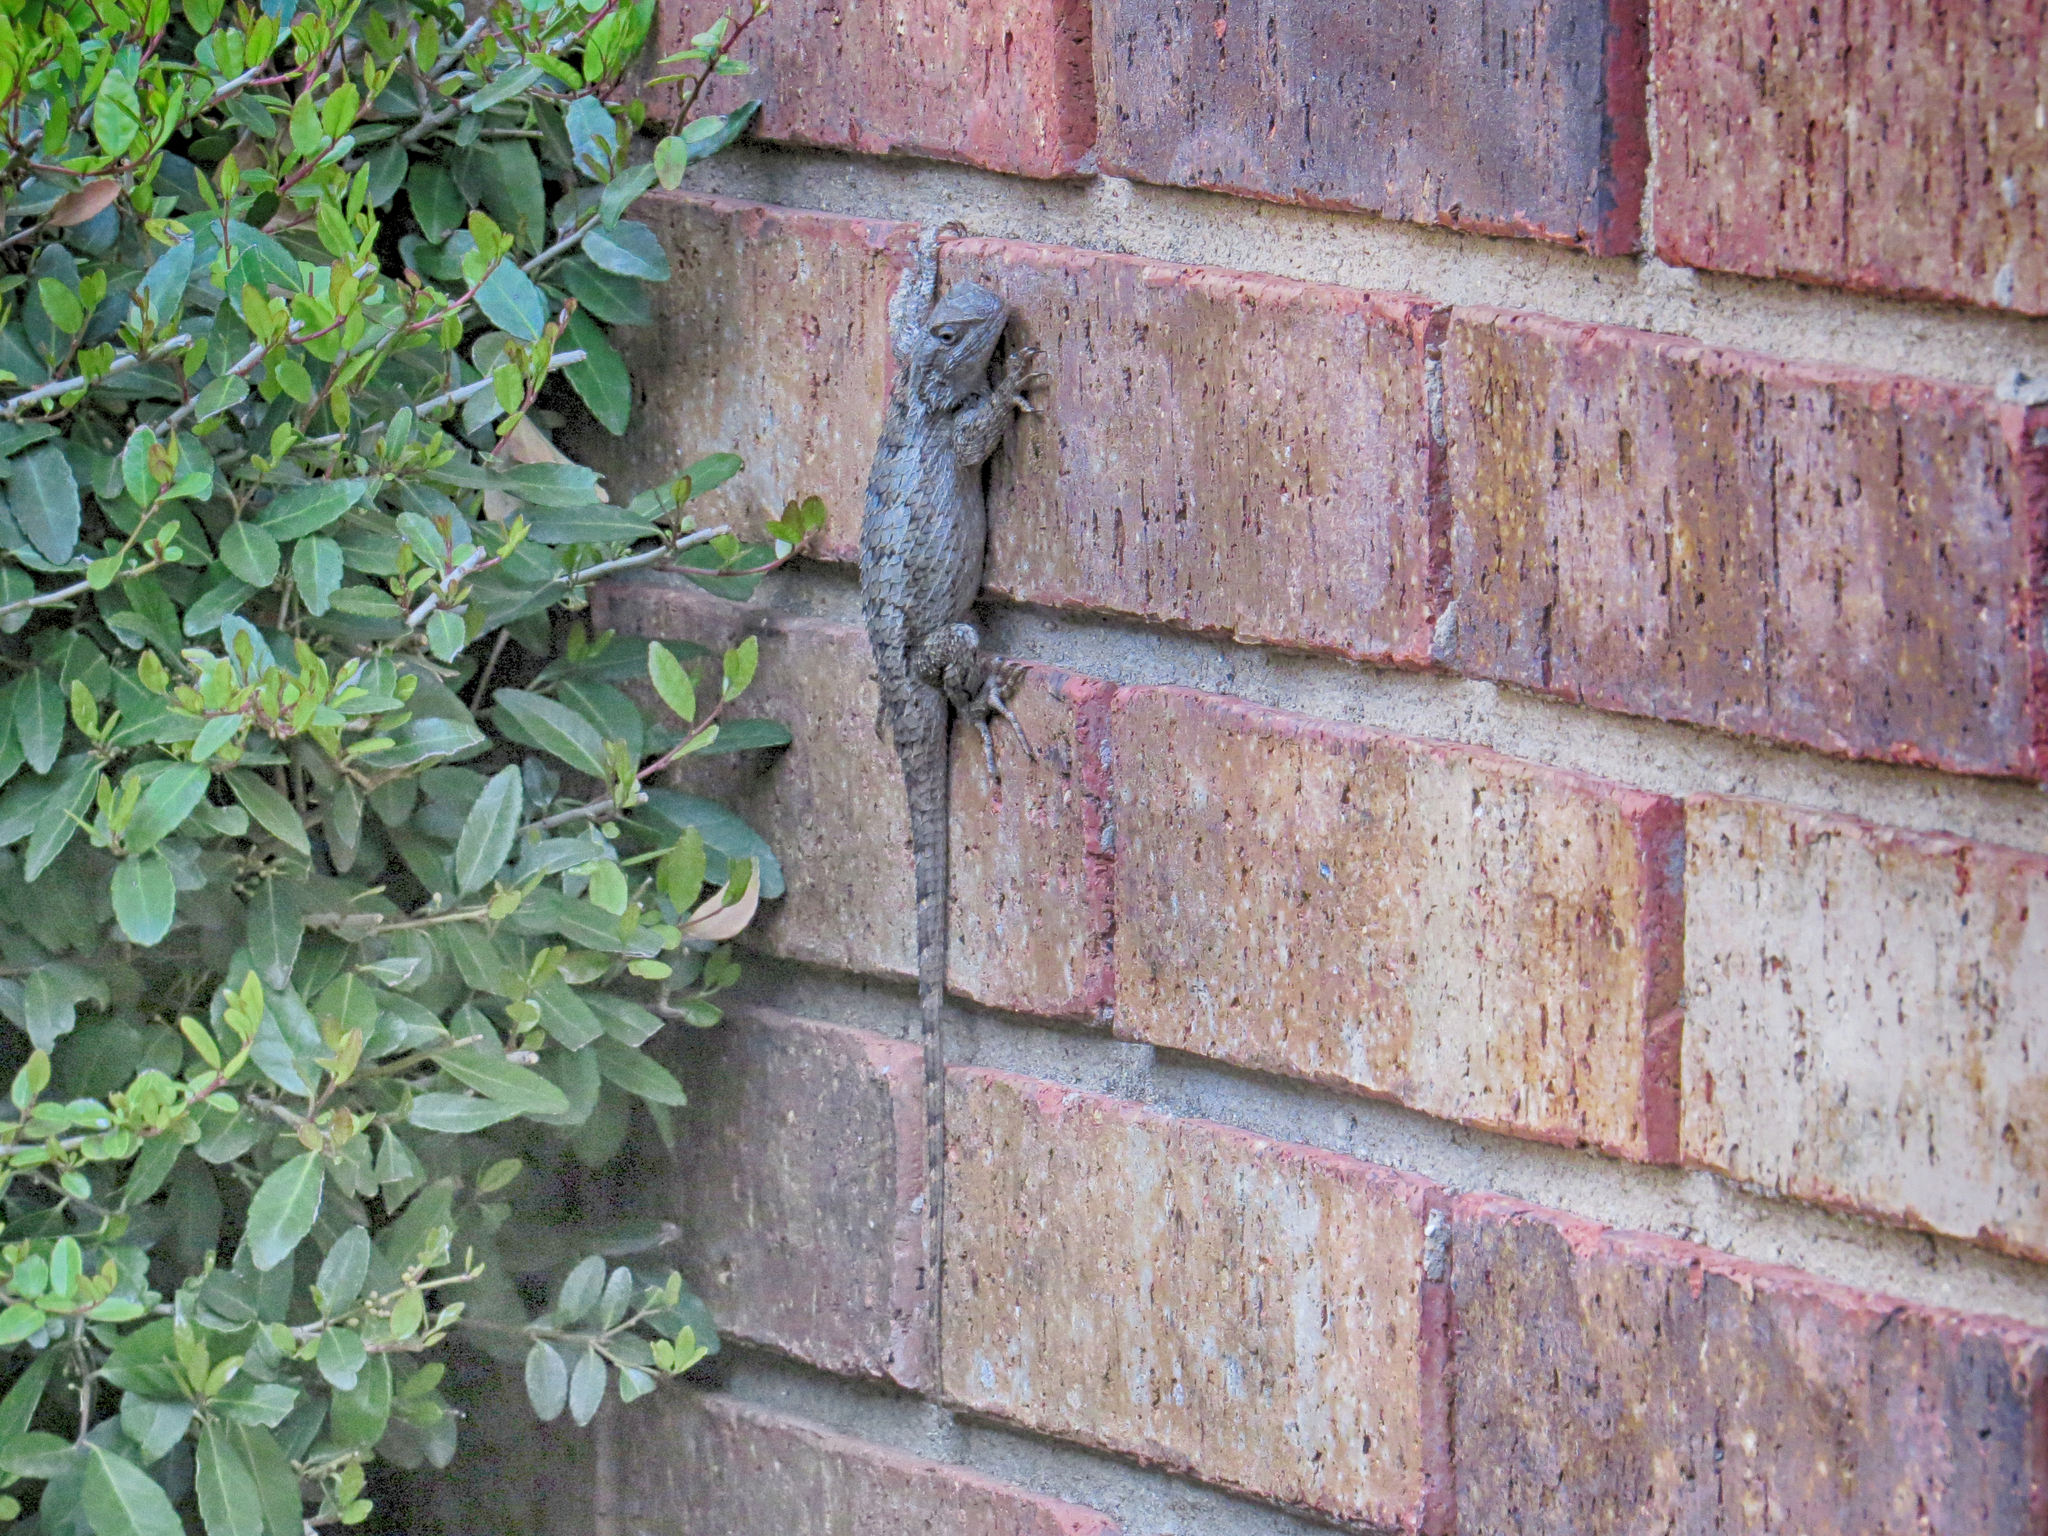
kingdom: Animalia
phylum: Chordata
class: Squamata
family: Phrynosomatidae
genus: Sceloporus
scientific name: Sceloporus olivaceus
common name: Texas spiny lizard
